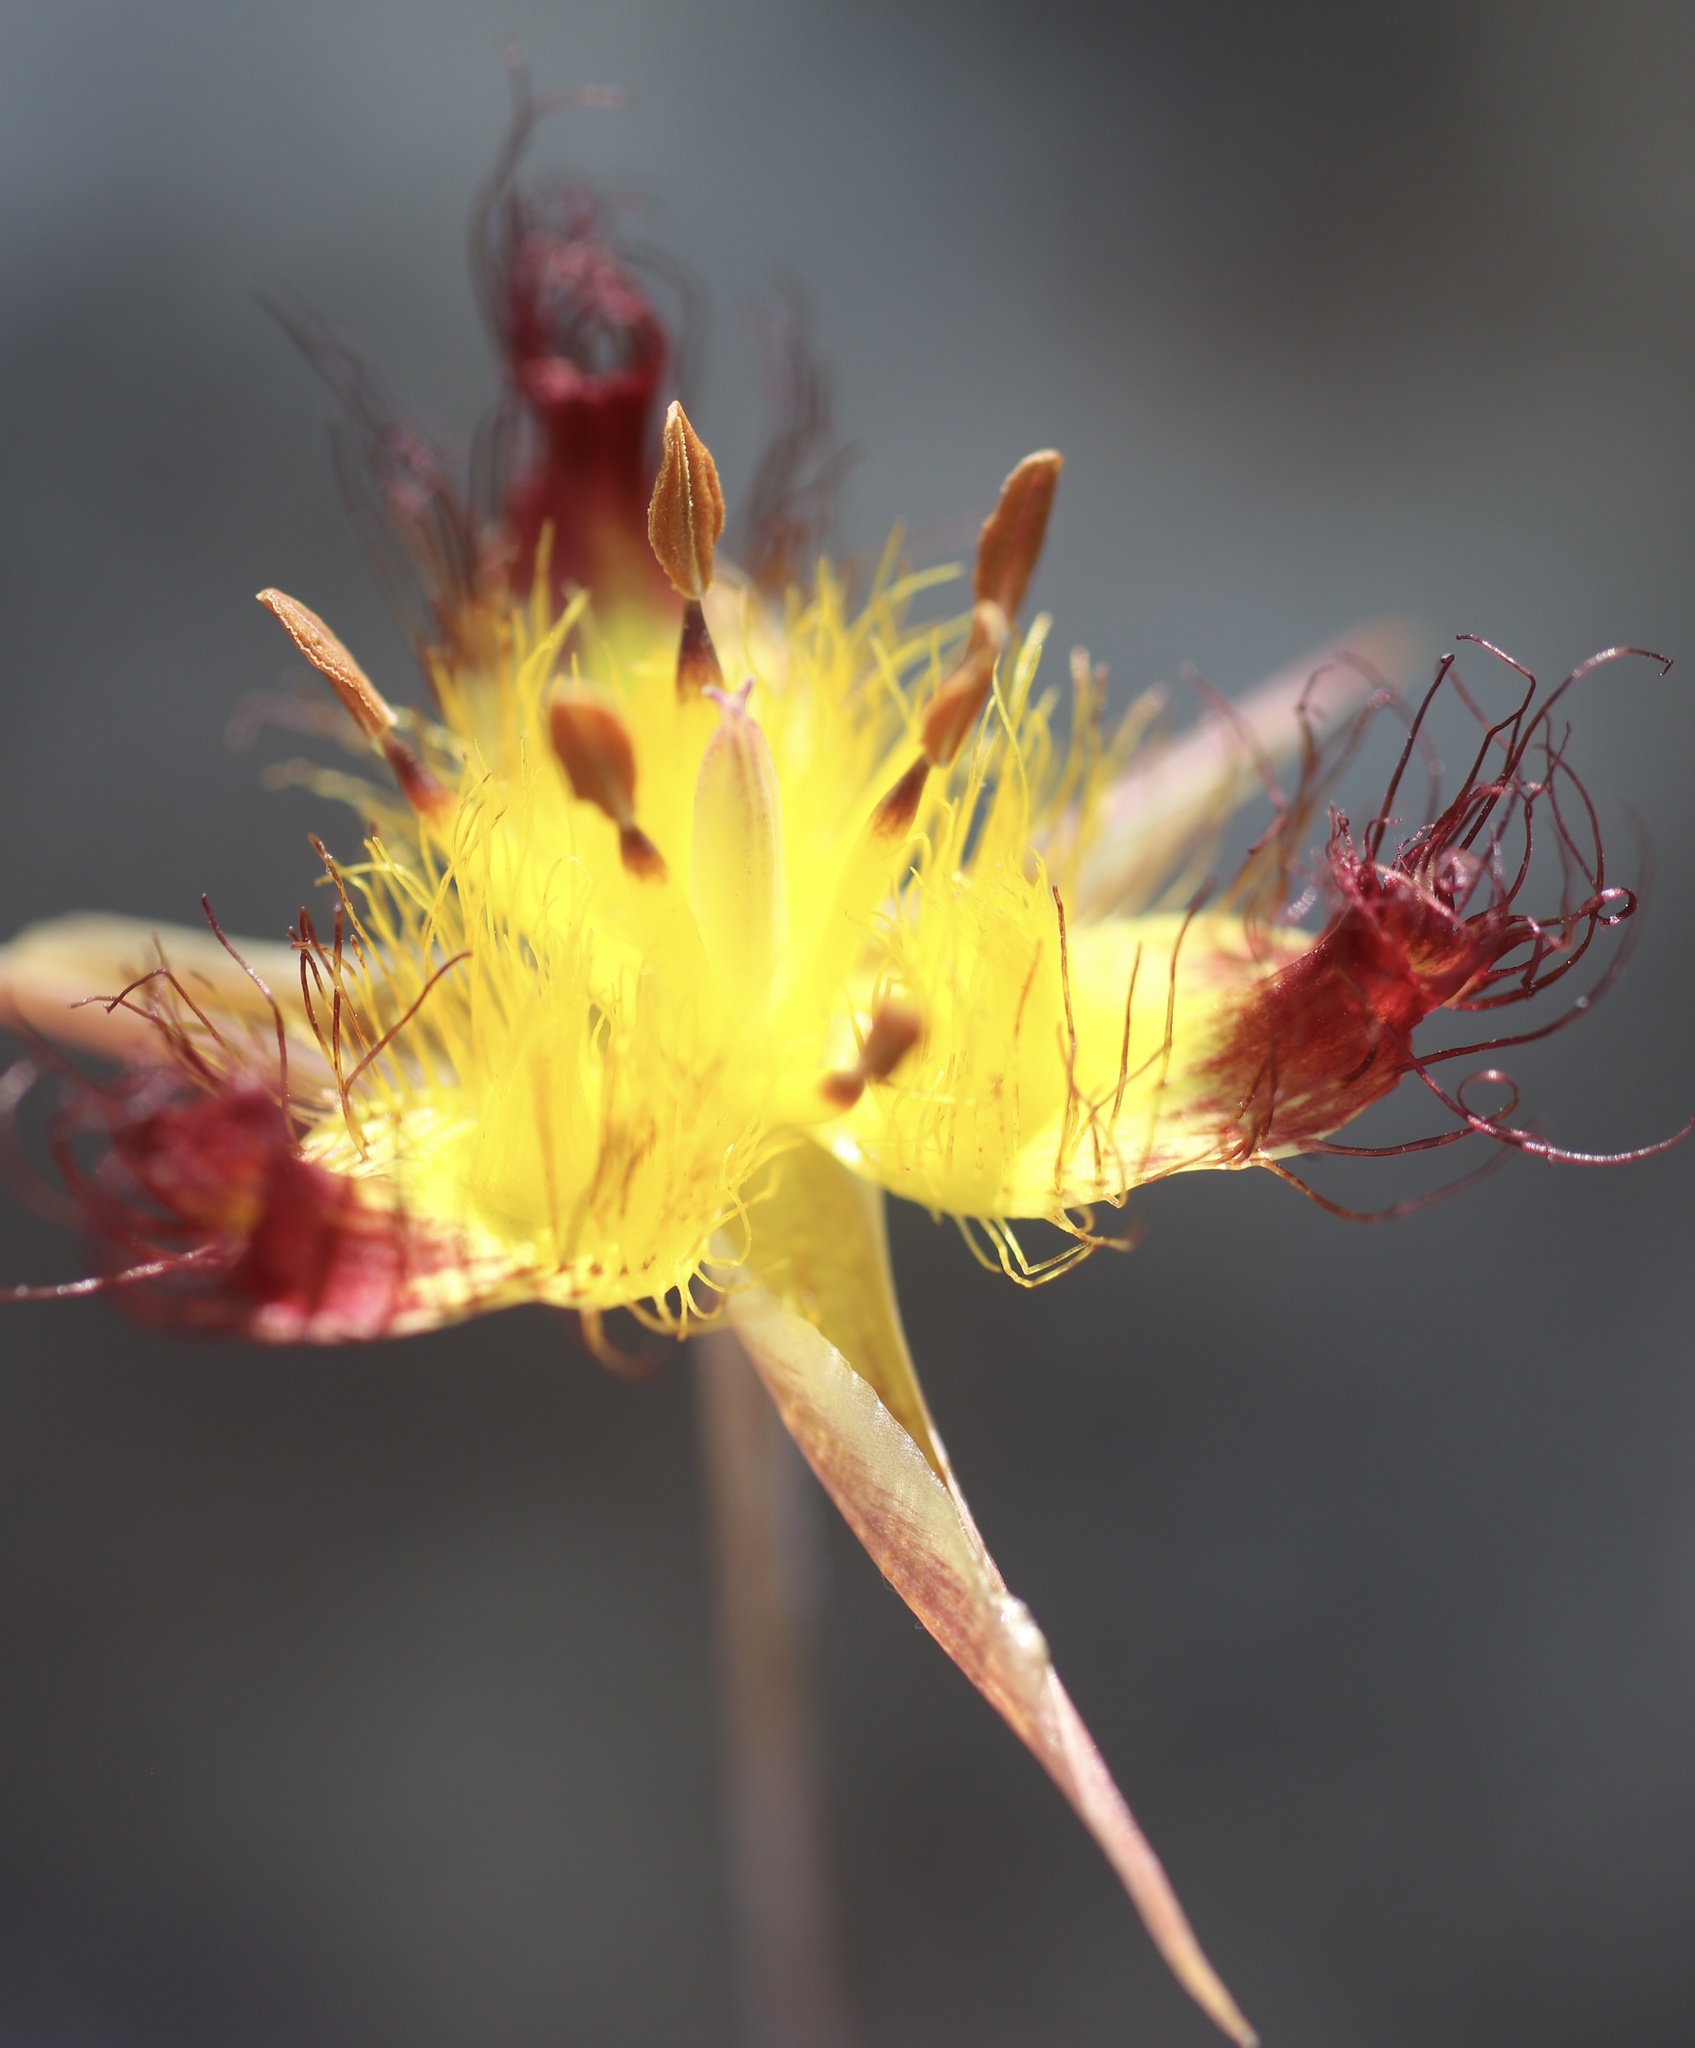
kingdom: Plantae
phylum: Tracheophyta
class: Liliopsida
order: Liliales
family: Liliaceae
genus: Calochortus
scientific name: Calochortus obispoensis
